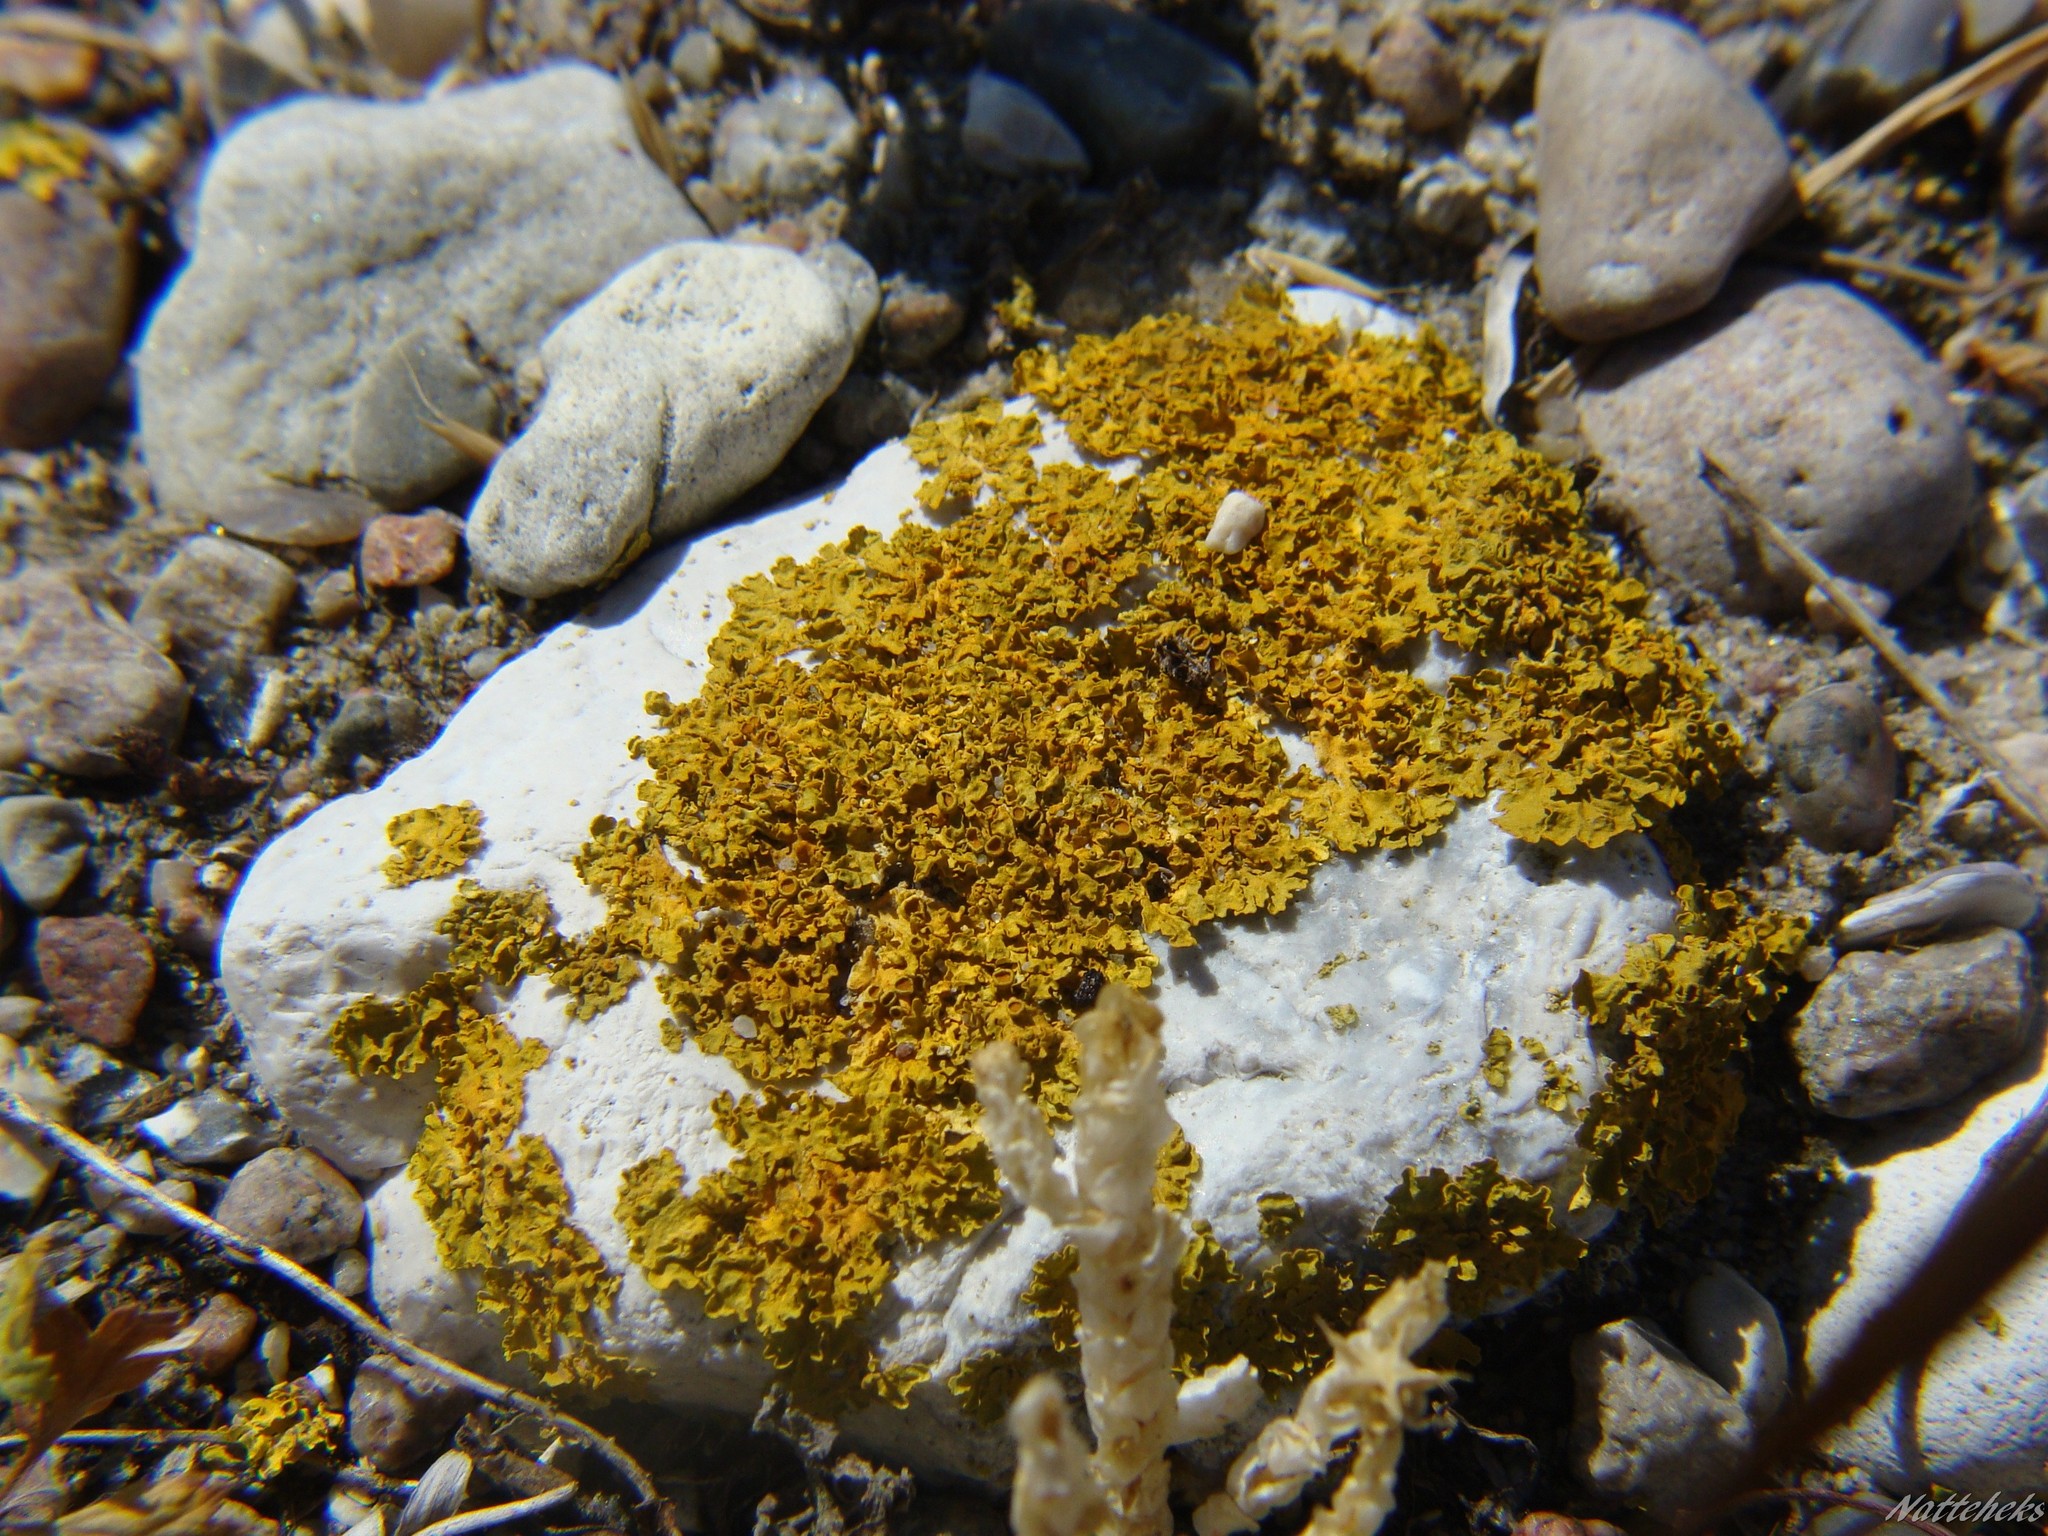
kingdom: Fungi
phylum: Ascomycota
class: Lecanoromycetes
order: Teloschistales
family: Teloschistaceae
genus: Xanthoria
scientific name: Xanthoria parietina
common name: Common orange lichen
